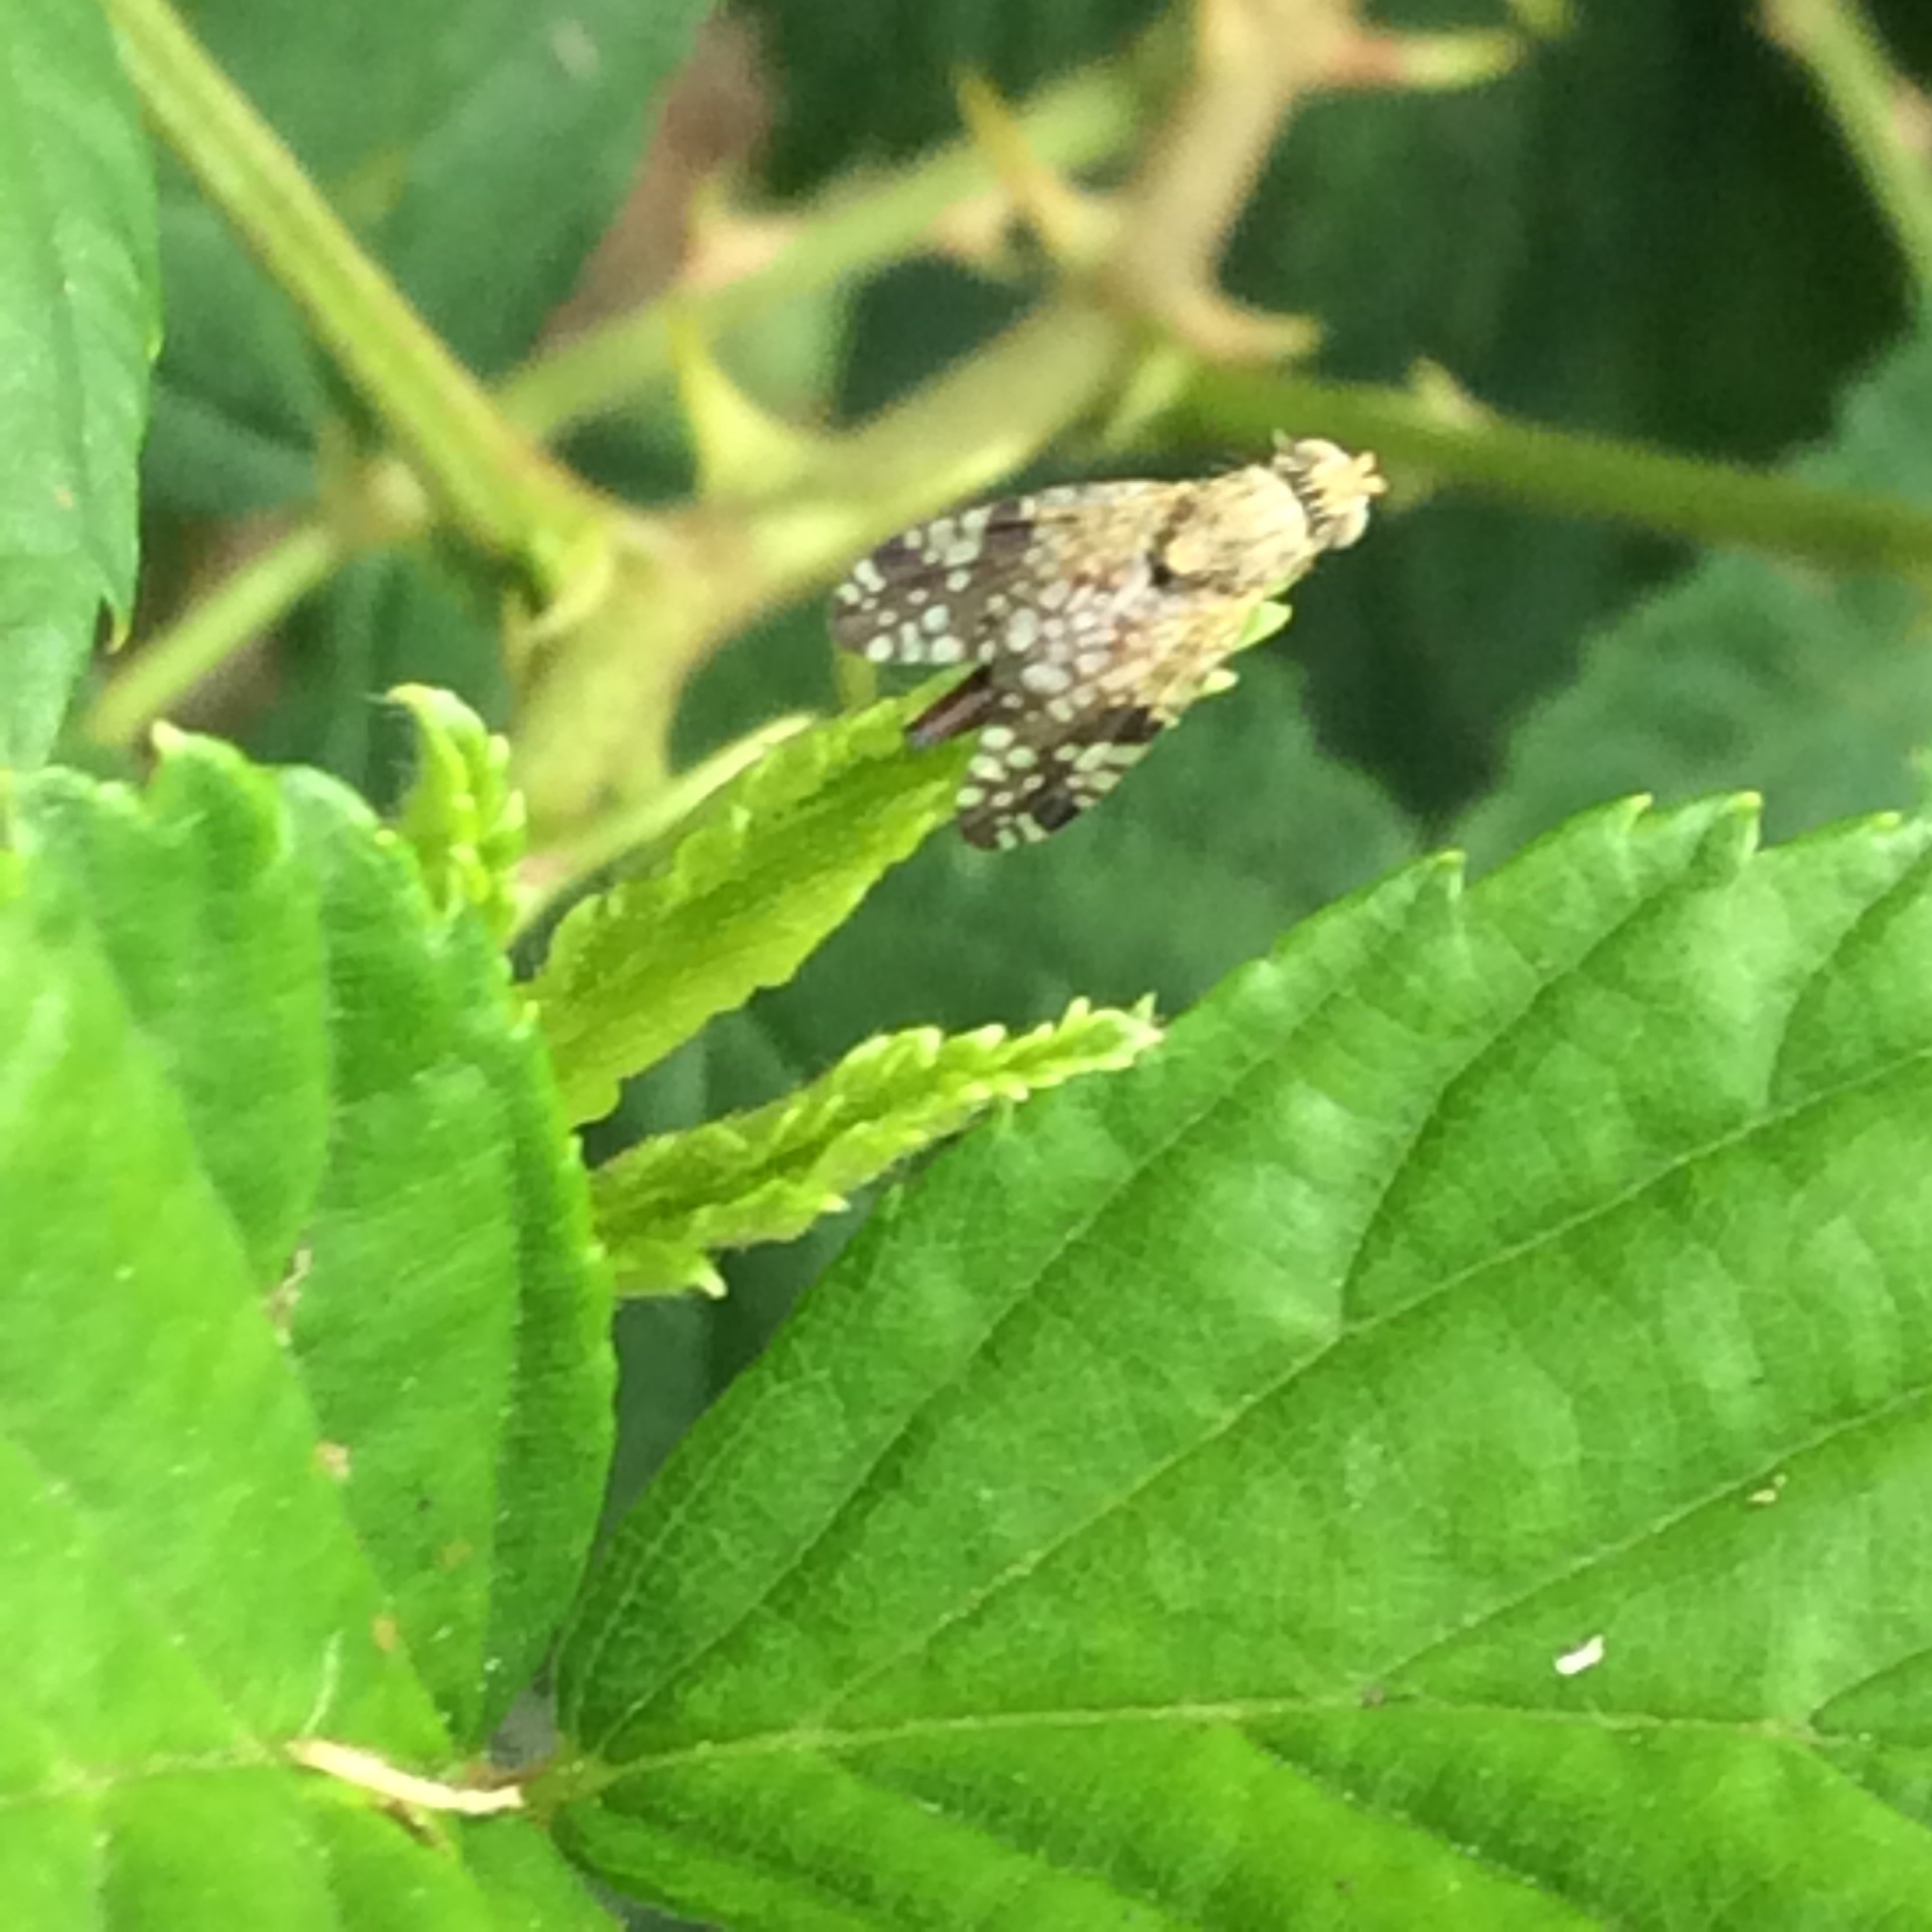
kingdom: Animalia
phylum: Arthropoda
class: Insecta
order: Diptera
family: Tephritidae
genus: Neotephritis
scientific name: Neotephritis finalis
